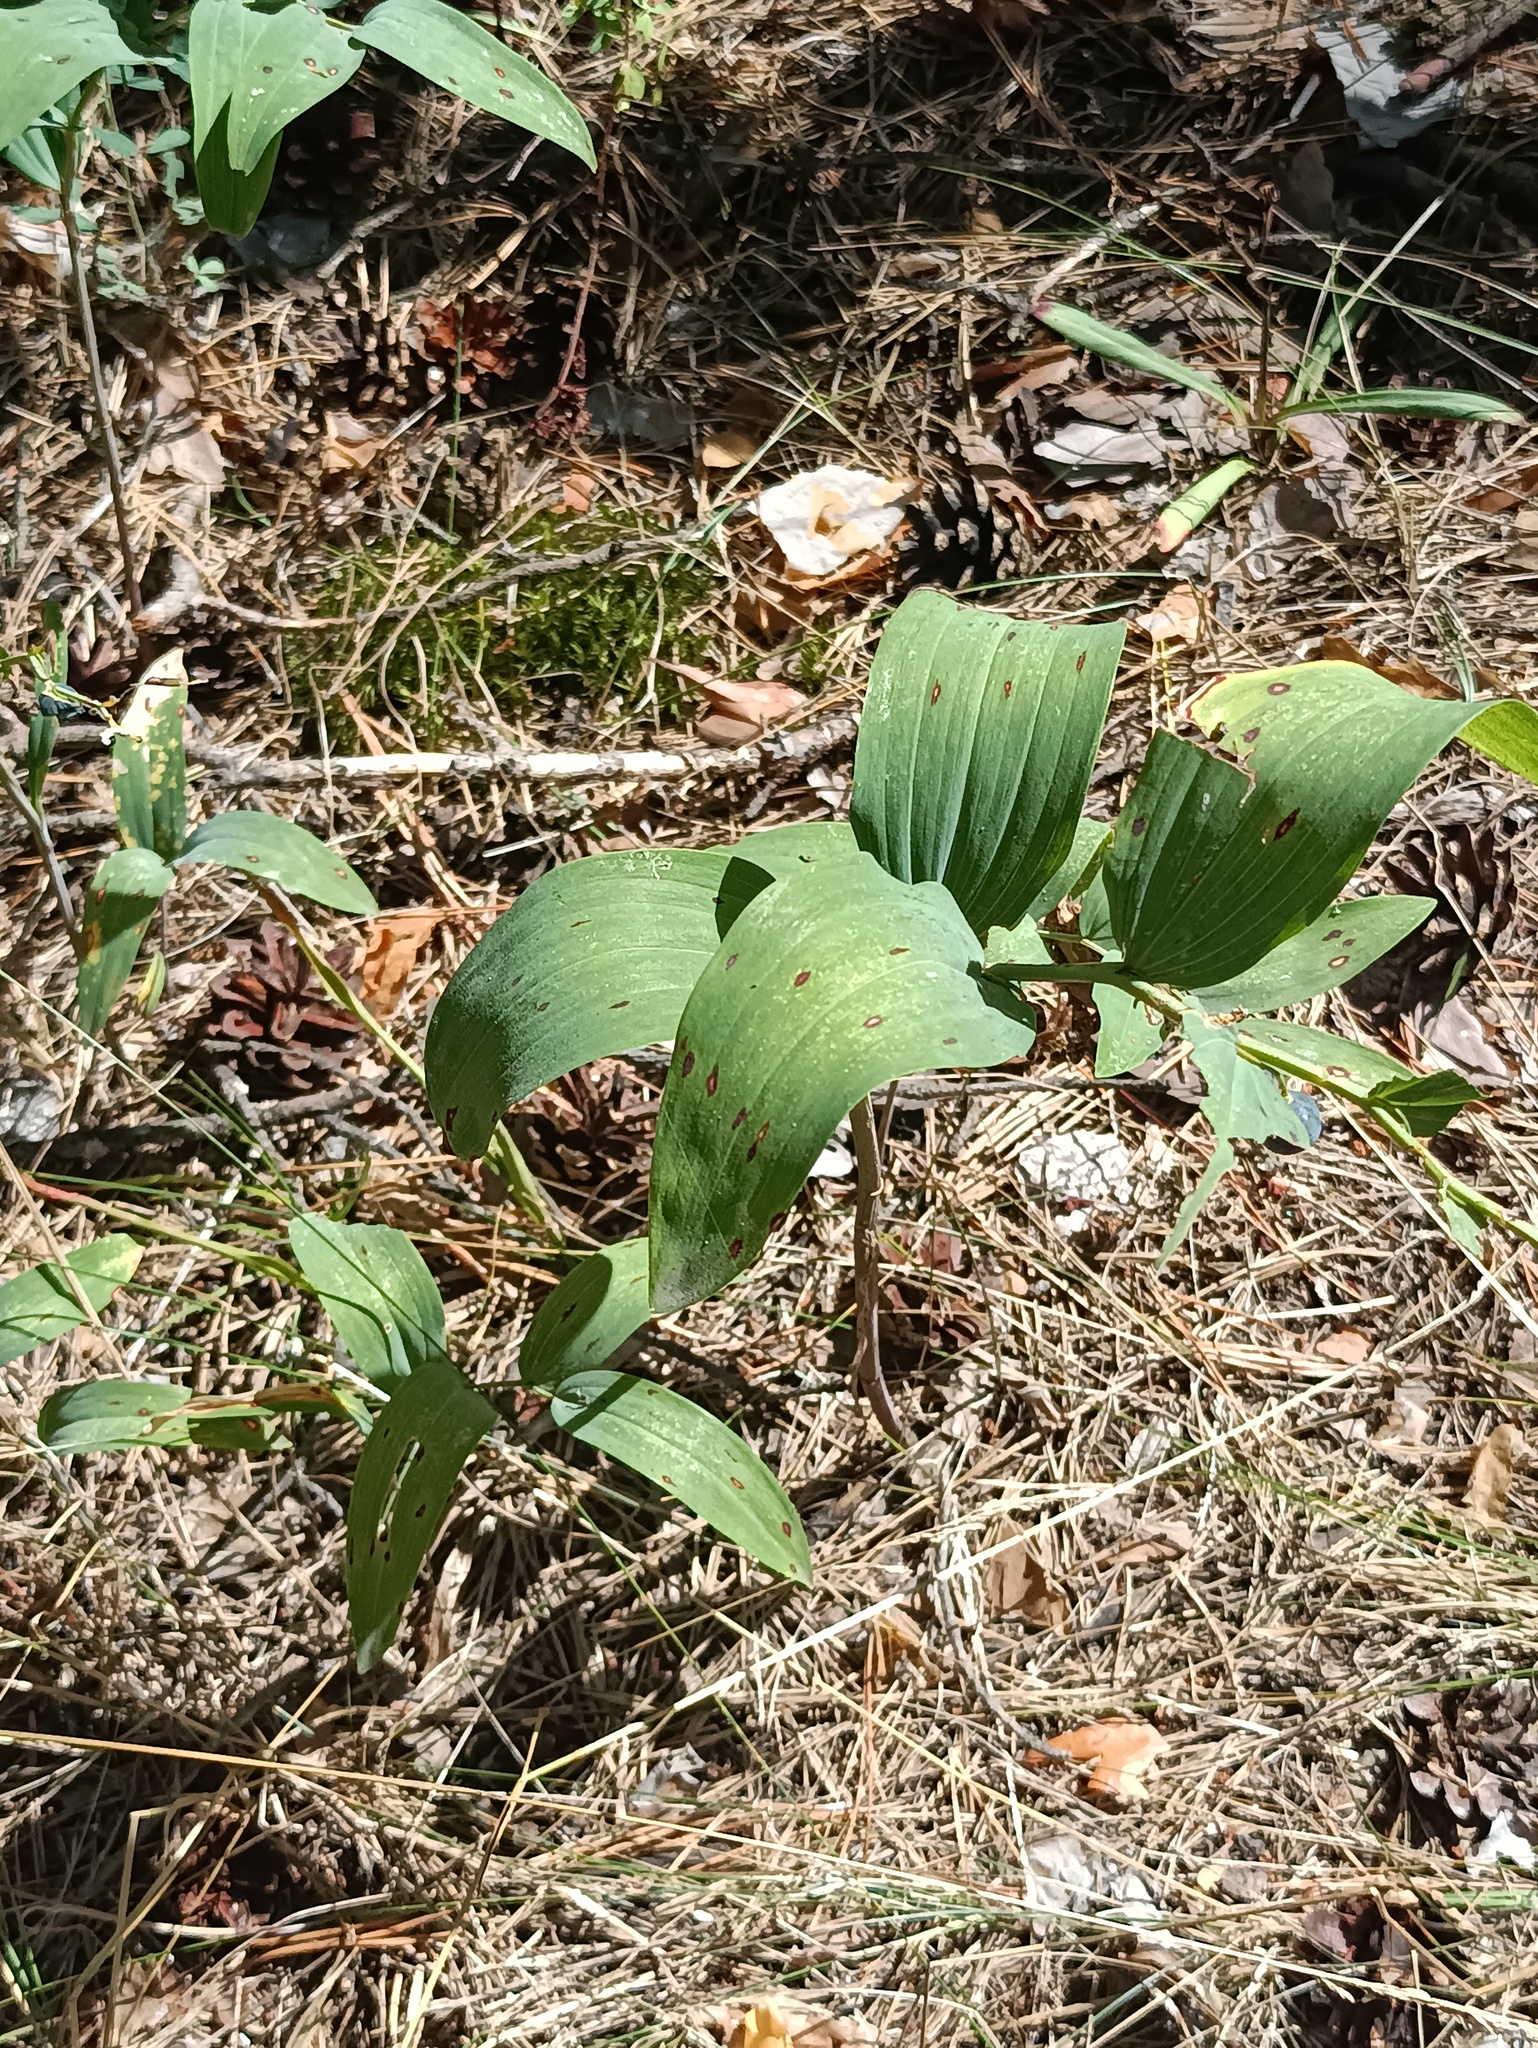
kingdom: Plantae
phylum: Tracheophyta
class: Liliopsida
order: Asparagales
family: Asparagaceae
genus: Polygonatum
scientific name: Polygonatum odoratum
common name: Angular solomon's-seal
